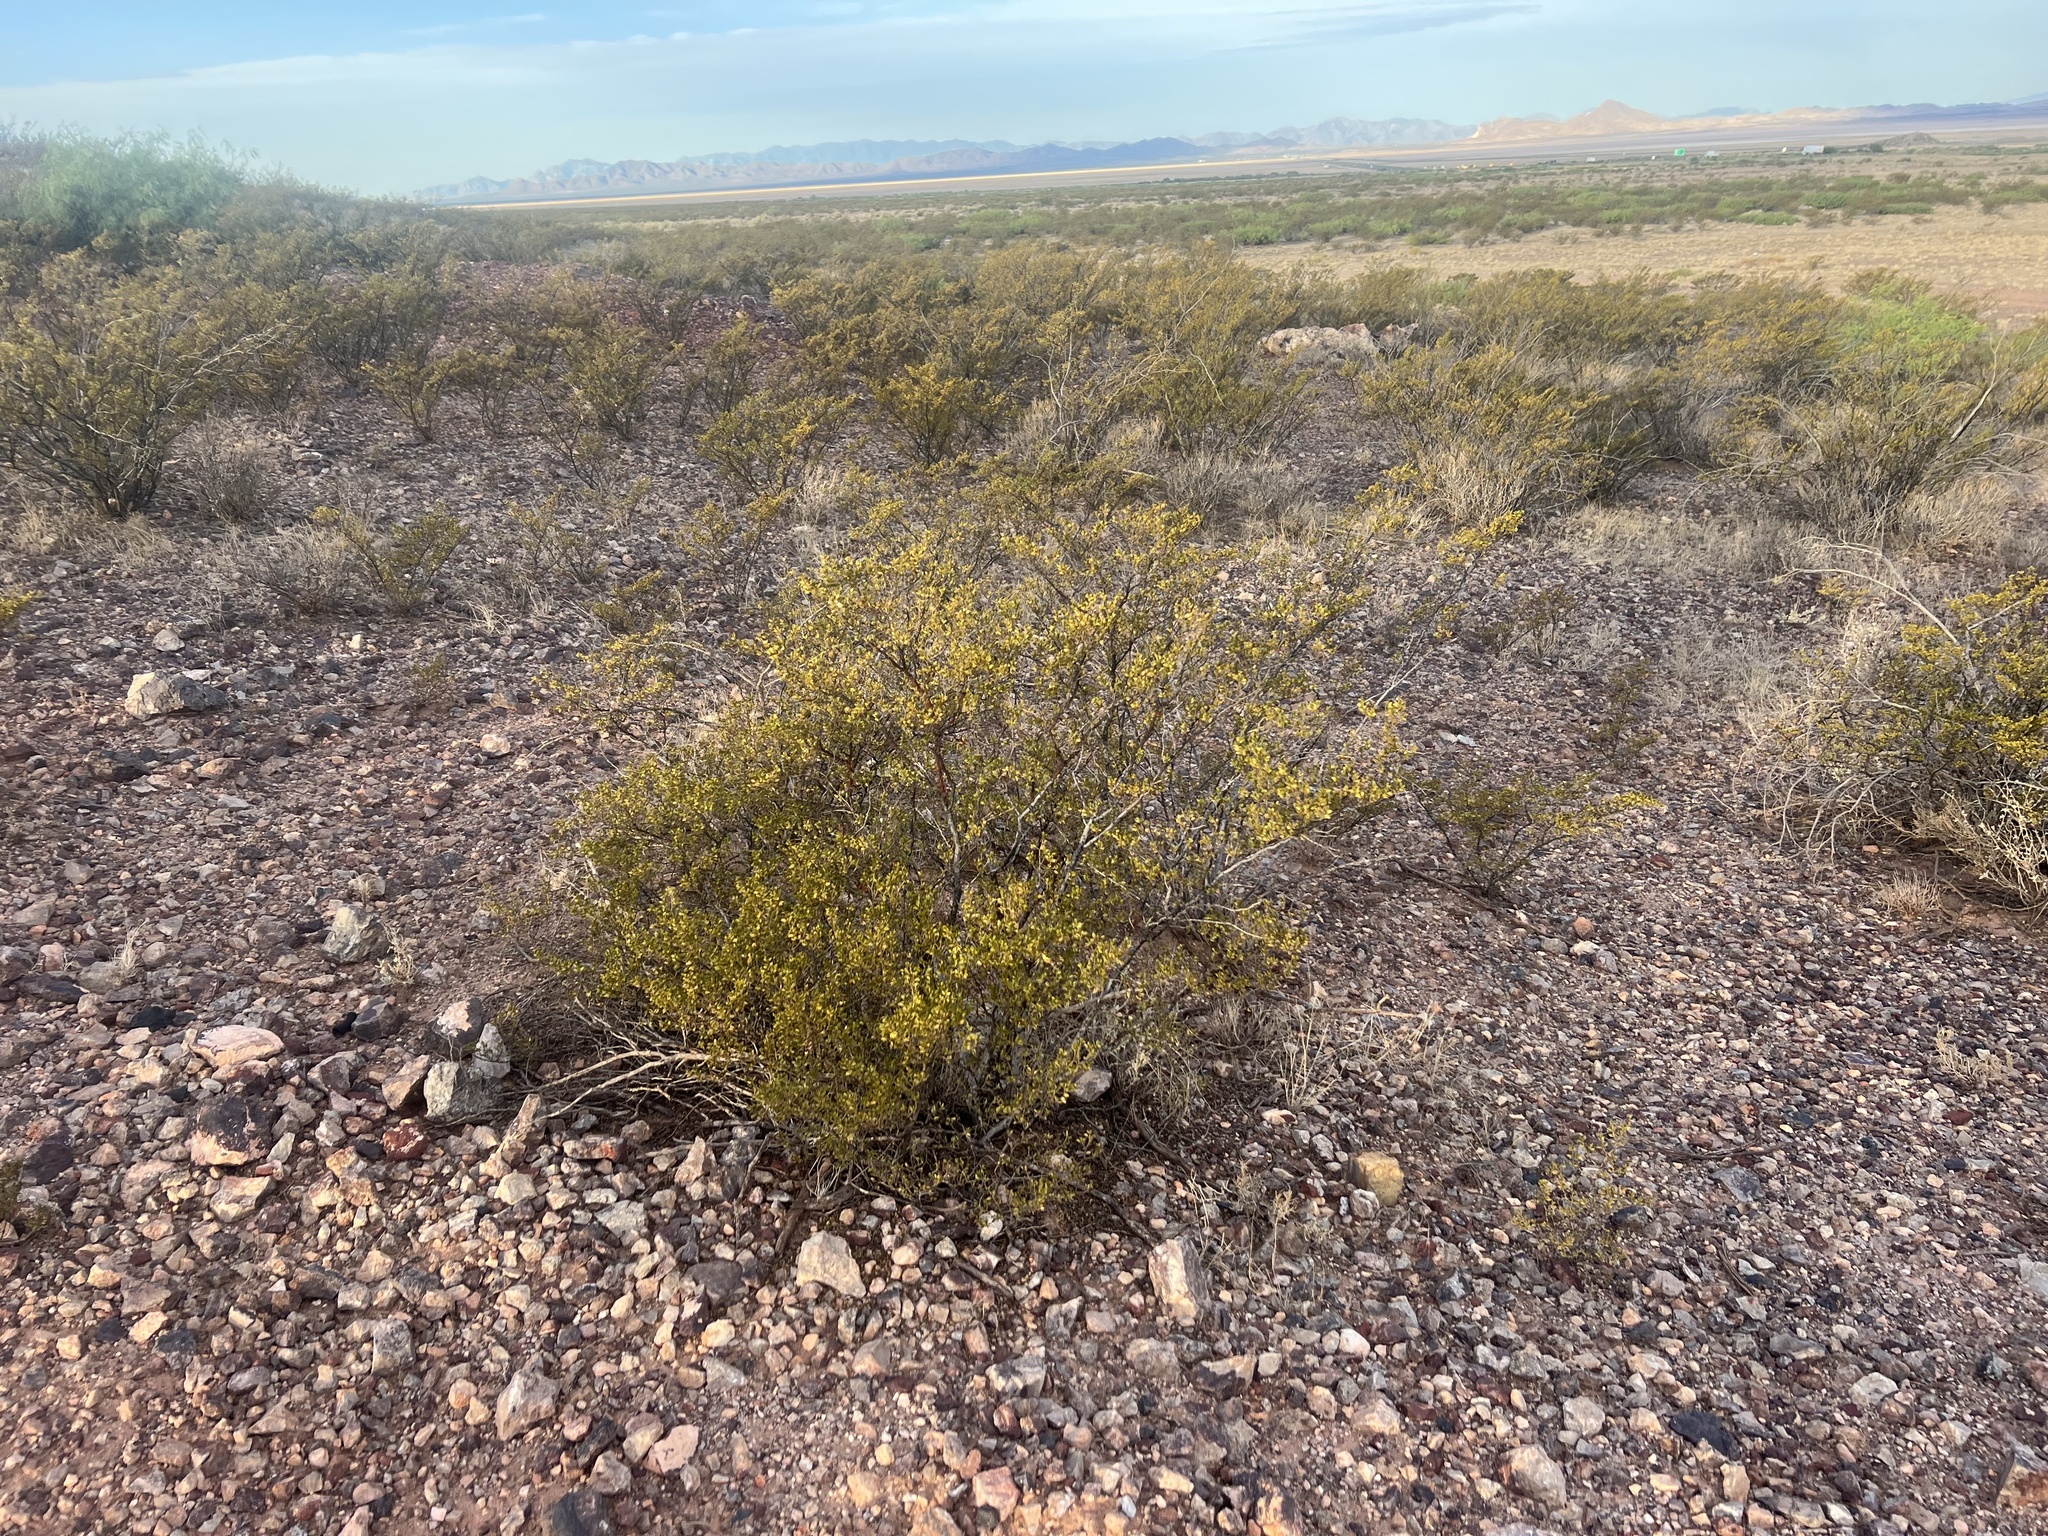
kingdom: Plantae
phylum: Tracheophyta
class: Magnoliopsida
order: Zygophyllales
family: Zygophyllaceae
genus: Larrea
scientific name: Larrea tridentata
